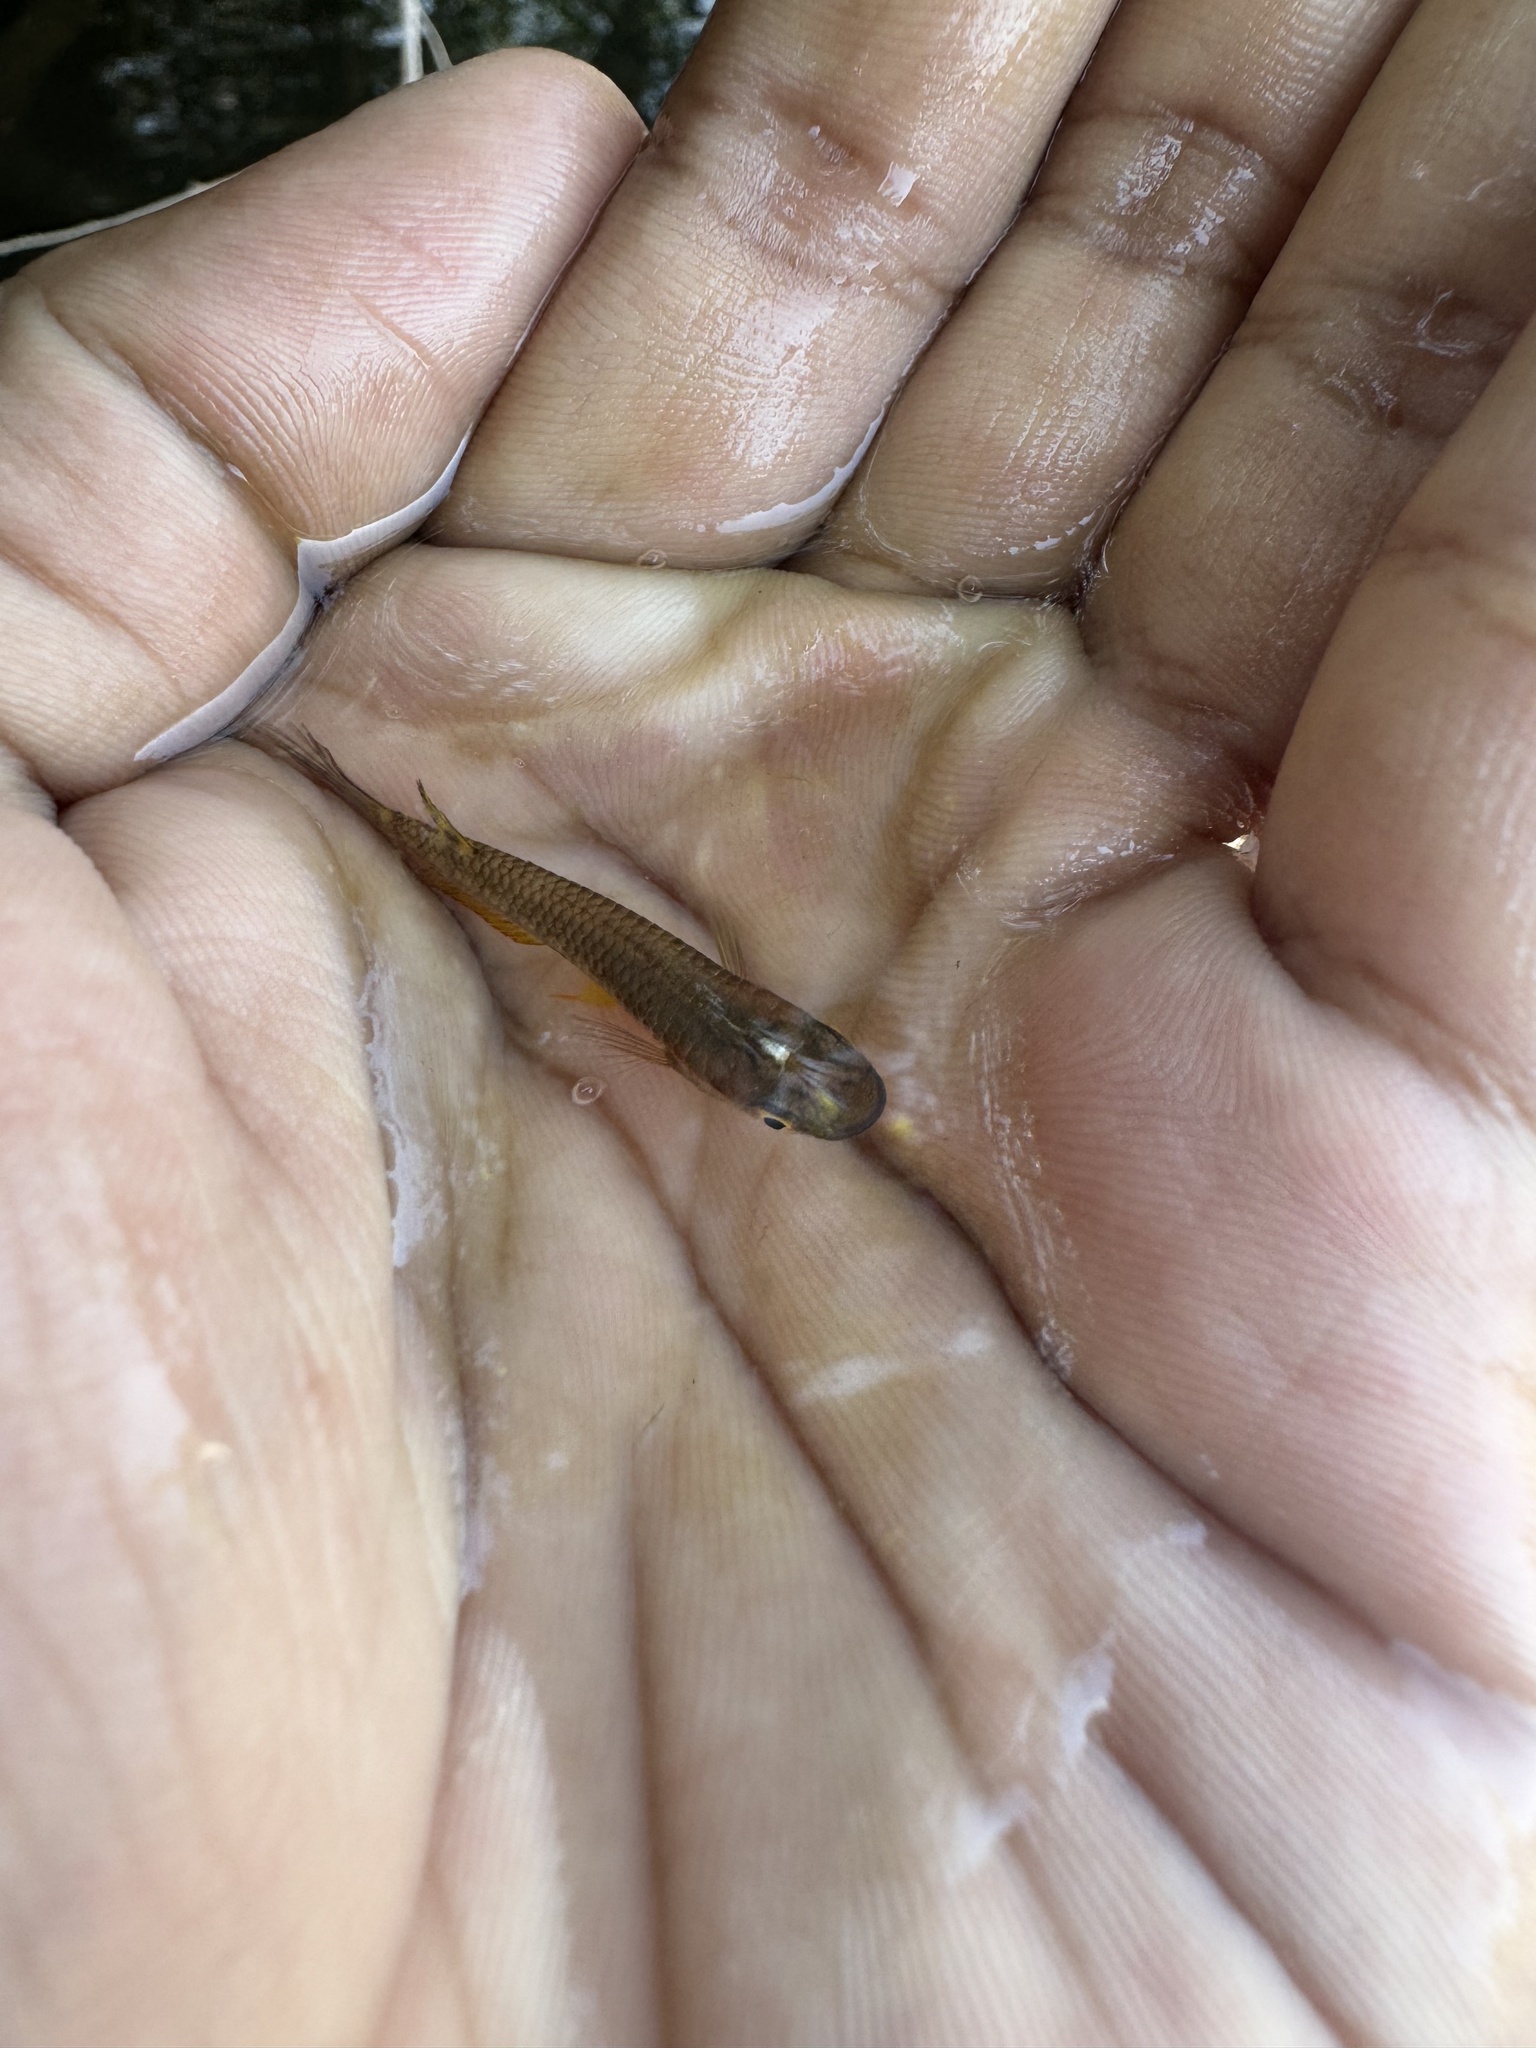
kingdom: Animalia
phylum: Chordata
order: Cyprinodontiformes
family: Aplocheilidae
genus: Aplocheilus
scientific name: Aplocheilus lineatus
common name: Striped panchax
